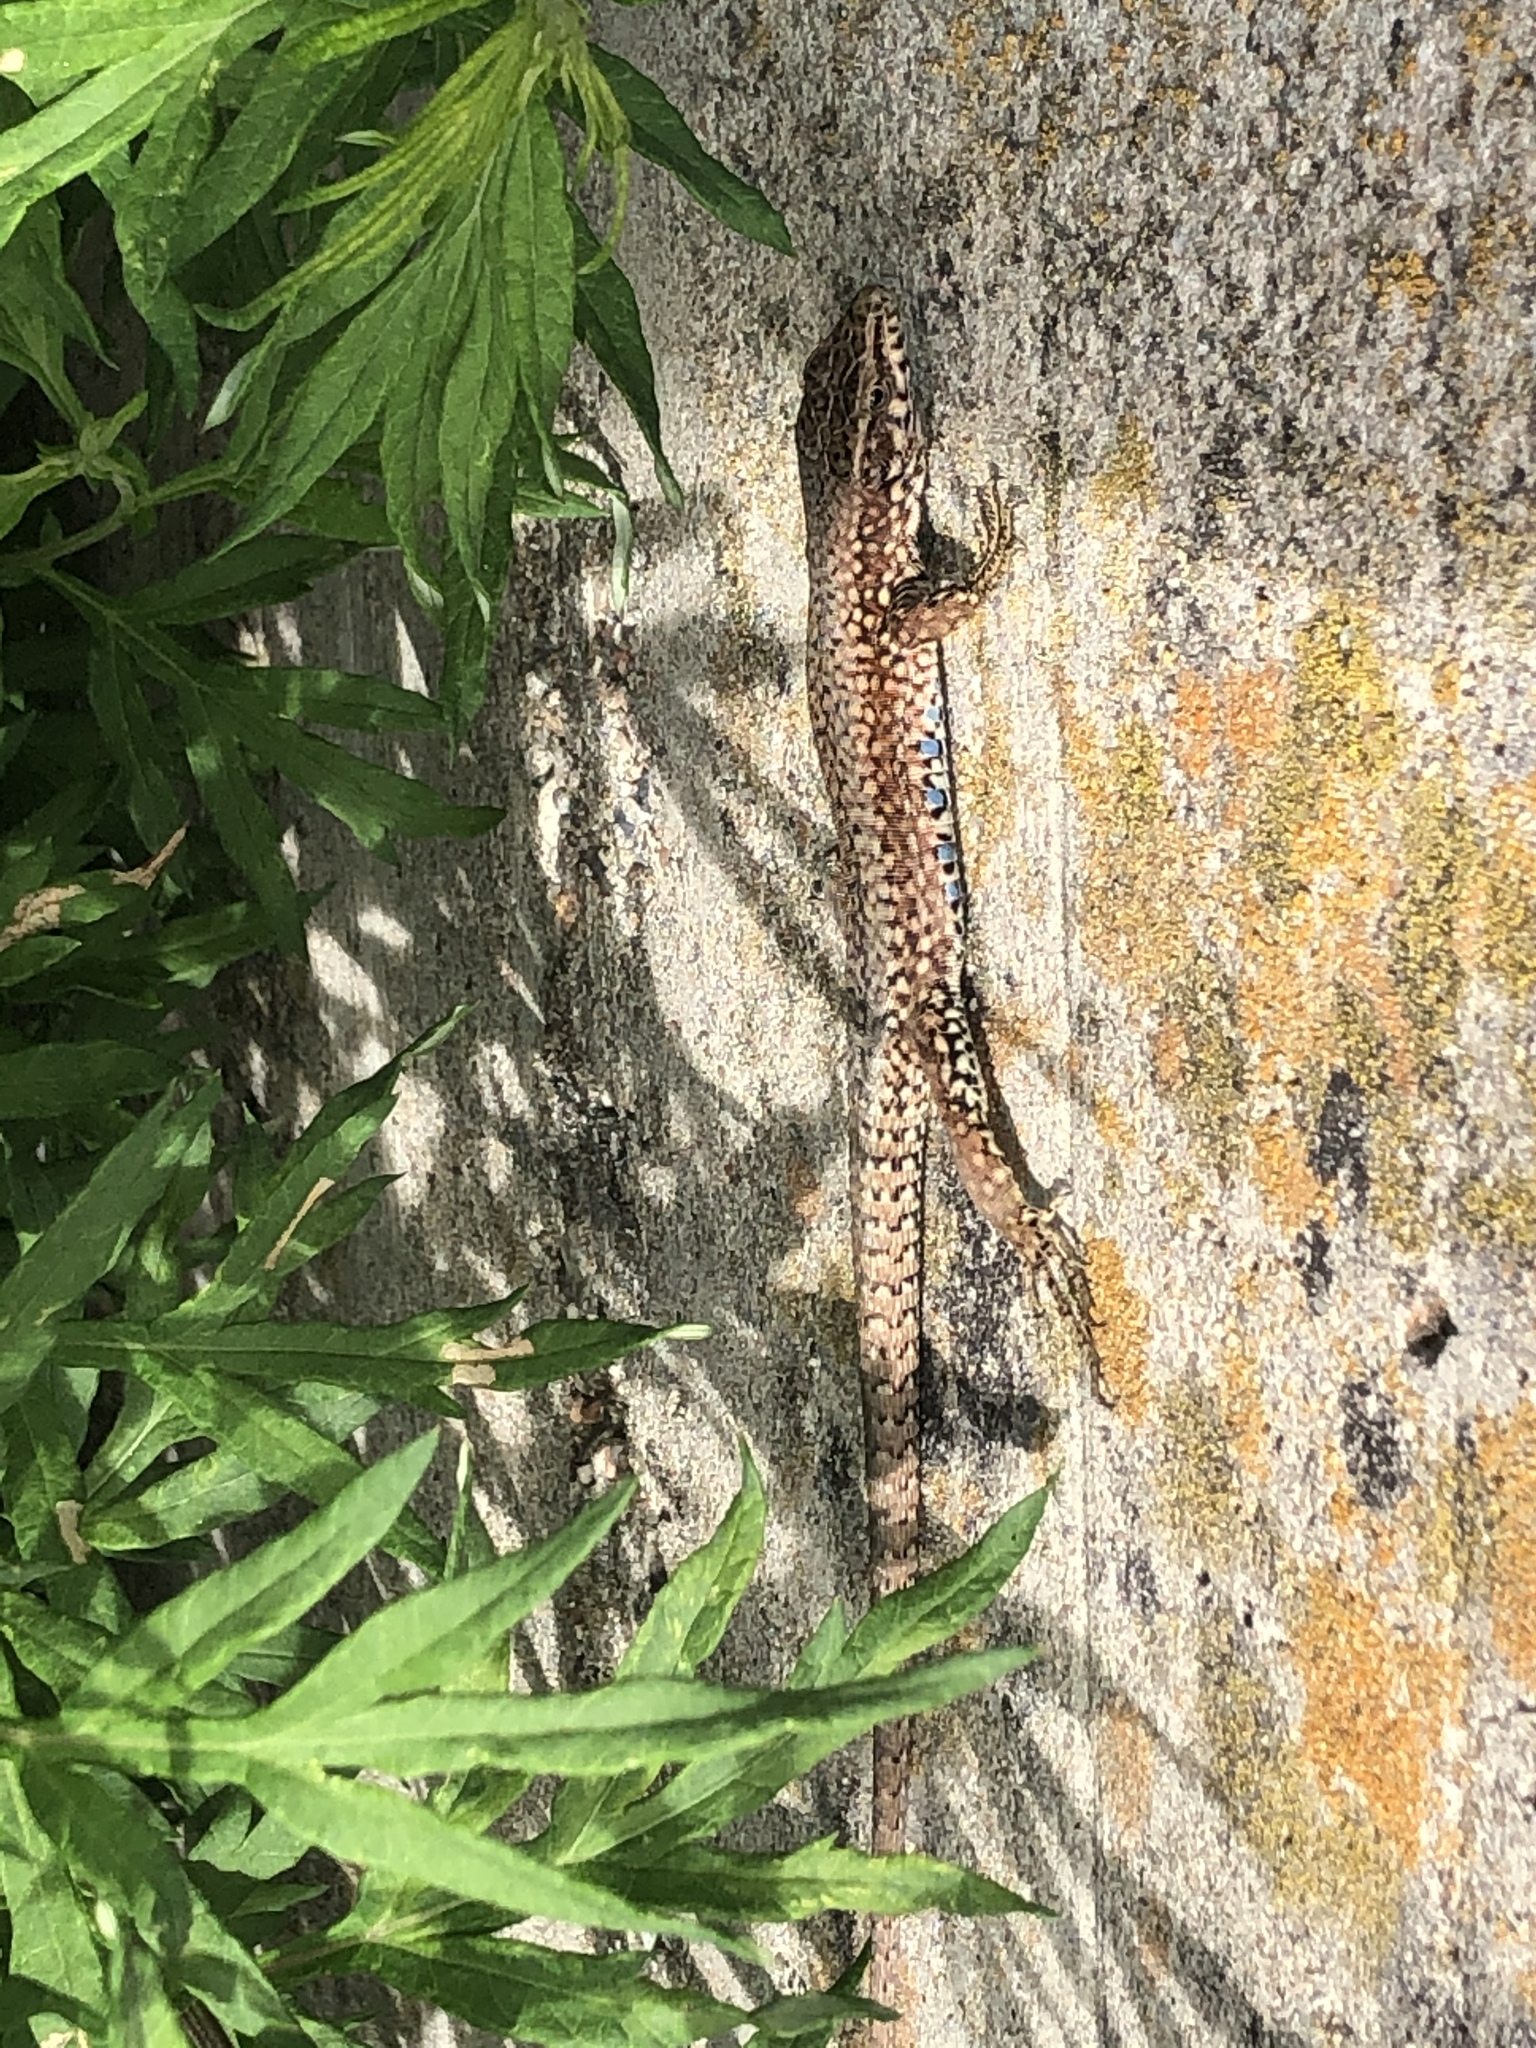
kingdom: Animalia
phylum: Chordata
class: Squamata
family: Lacertidae
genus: Podarcis
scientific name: Podarcis muralis
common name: Common wall lizard
